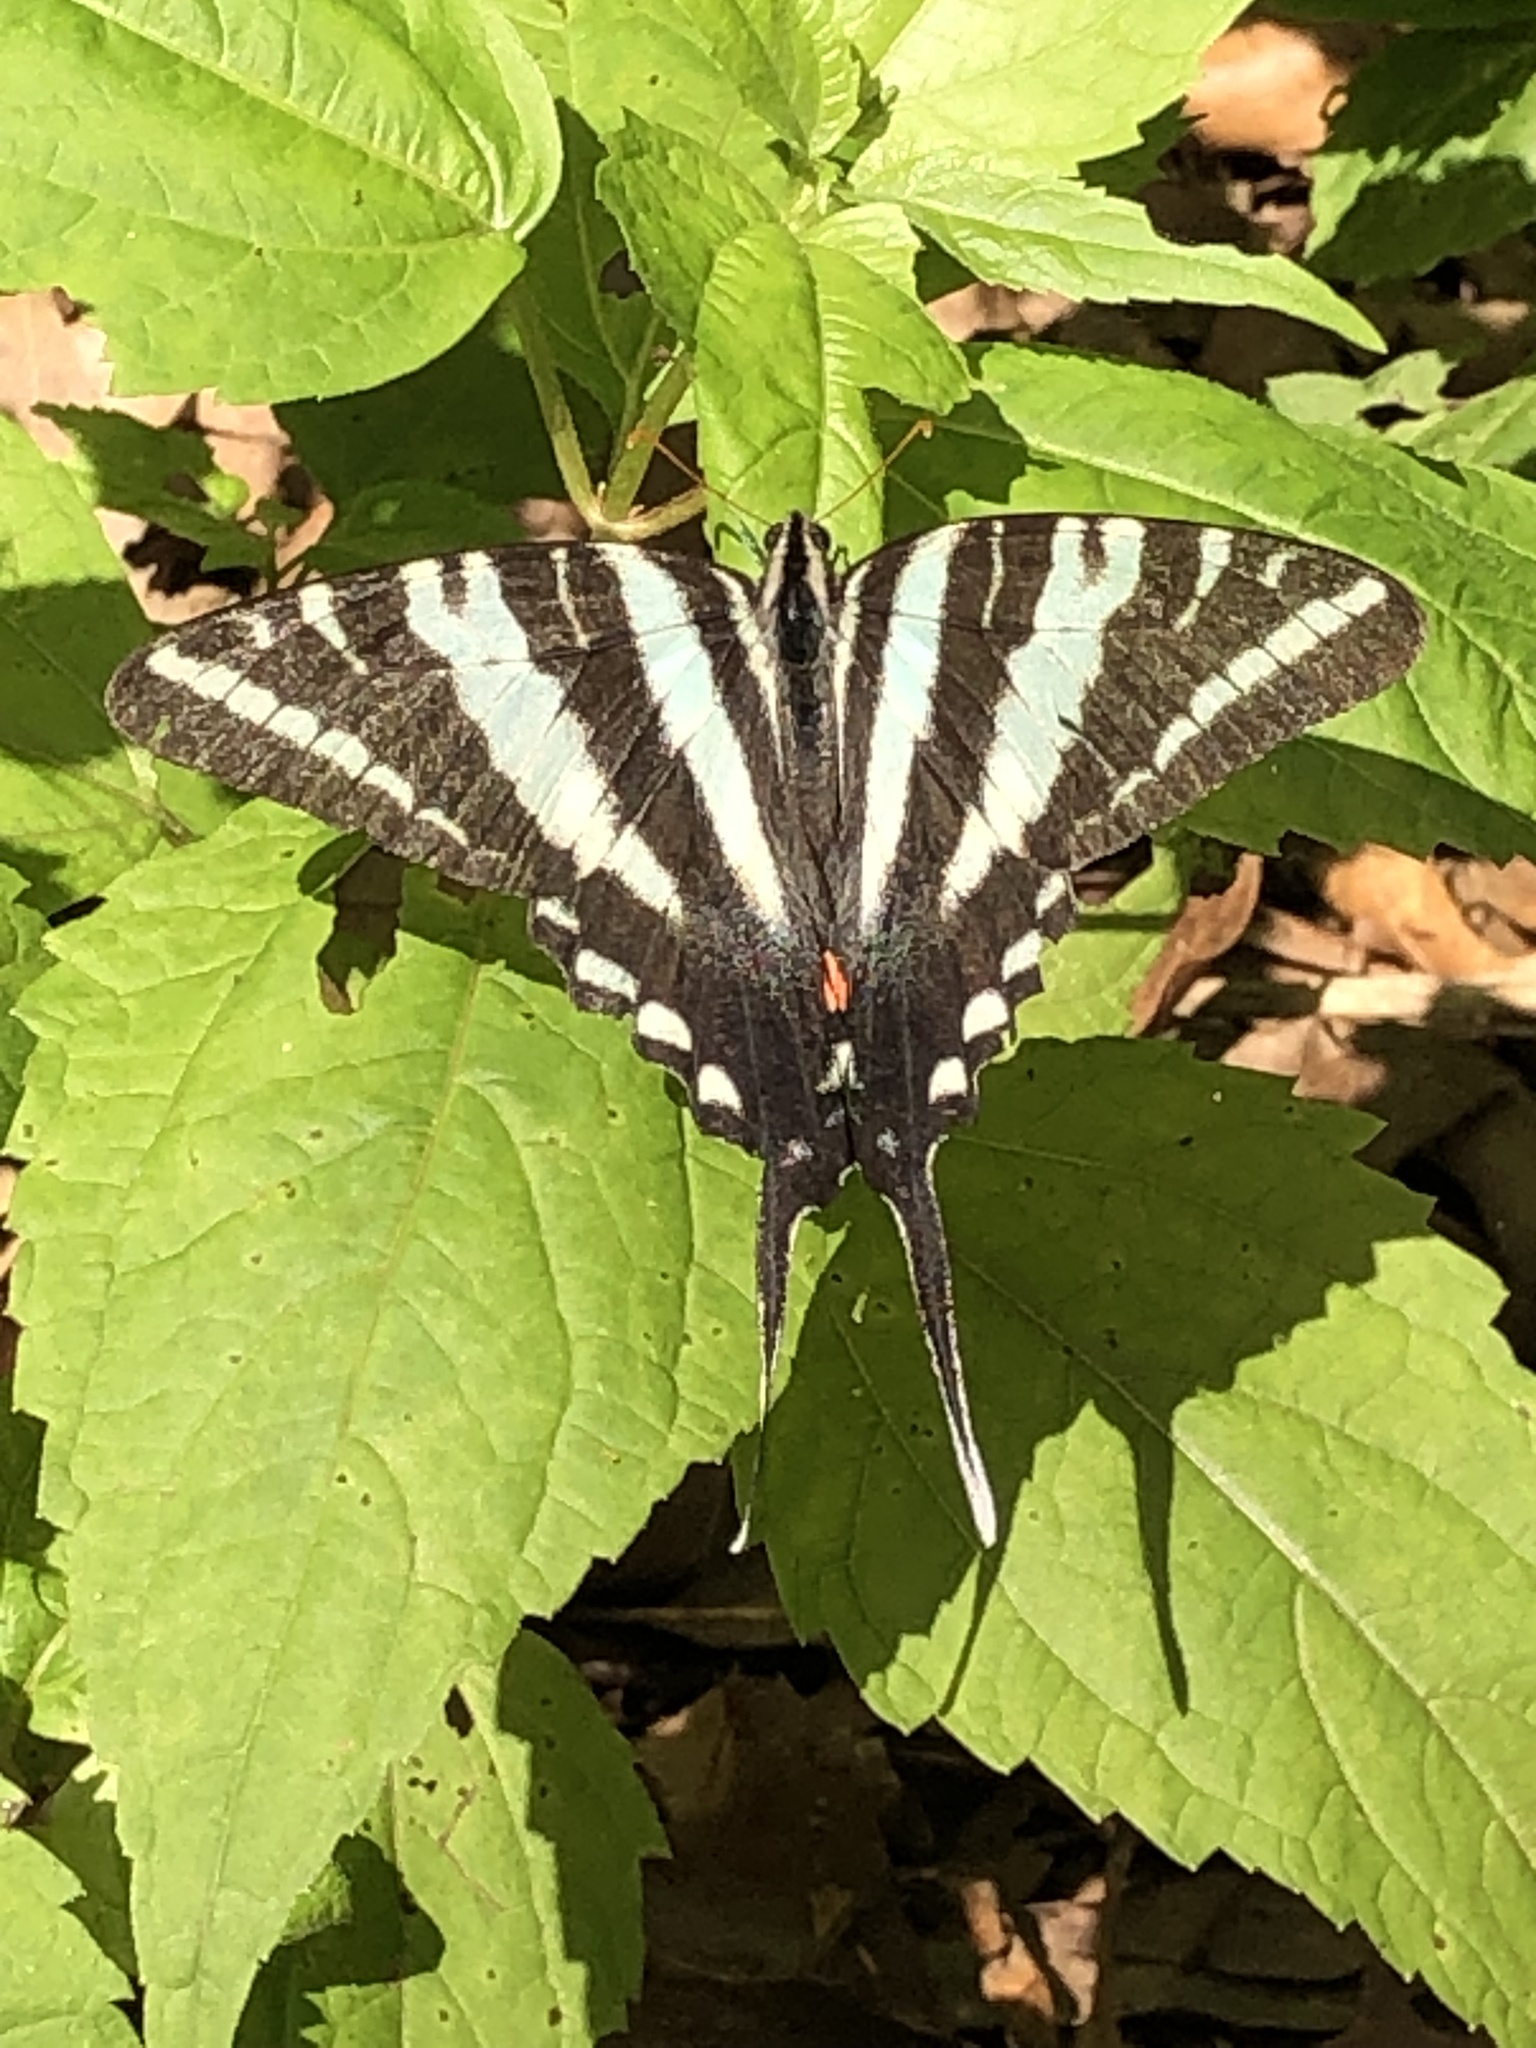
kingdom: Animalia
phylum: Arthropoda
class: Insecta
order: Lepidoptera
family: Papilionidae
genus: Protographium
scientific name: Protographium marcellus
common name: Zebra swallowtail
